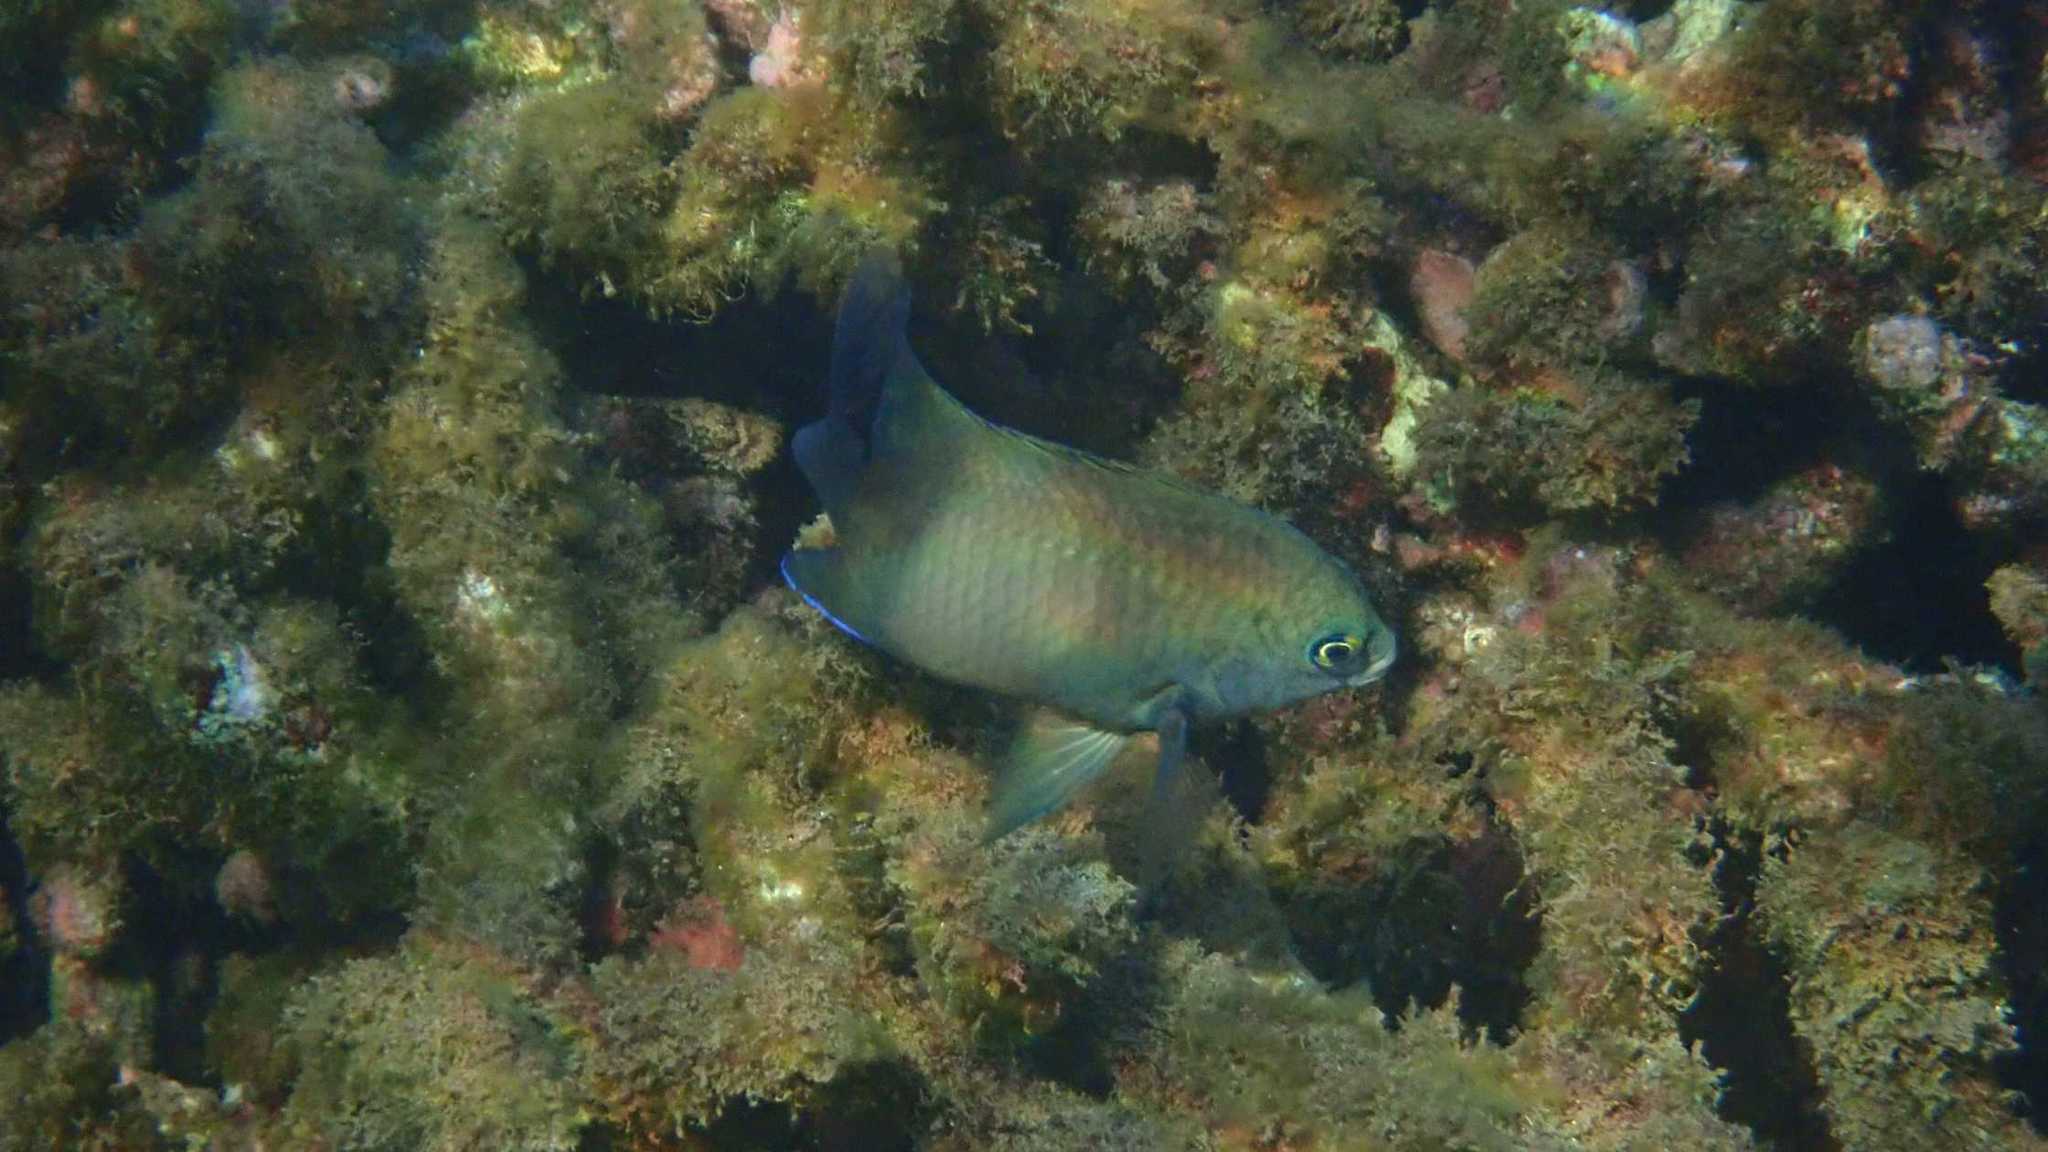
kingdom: Animalia
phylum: Chordata
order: Perciformes
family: Pomacentridae
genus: Stegastes
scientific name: Stegastes nigricans
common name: Dusky gregory
